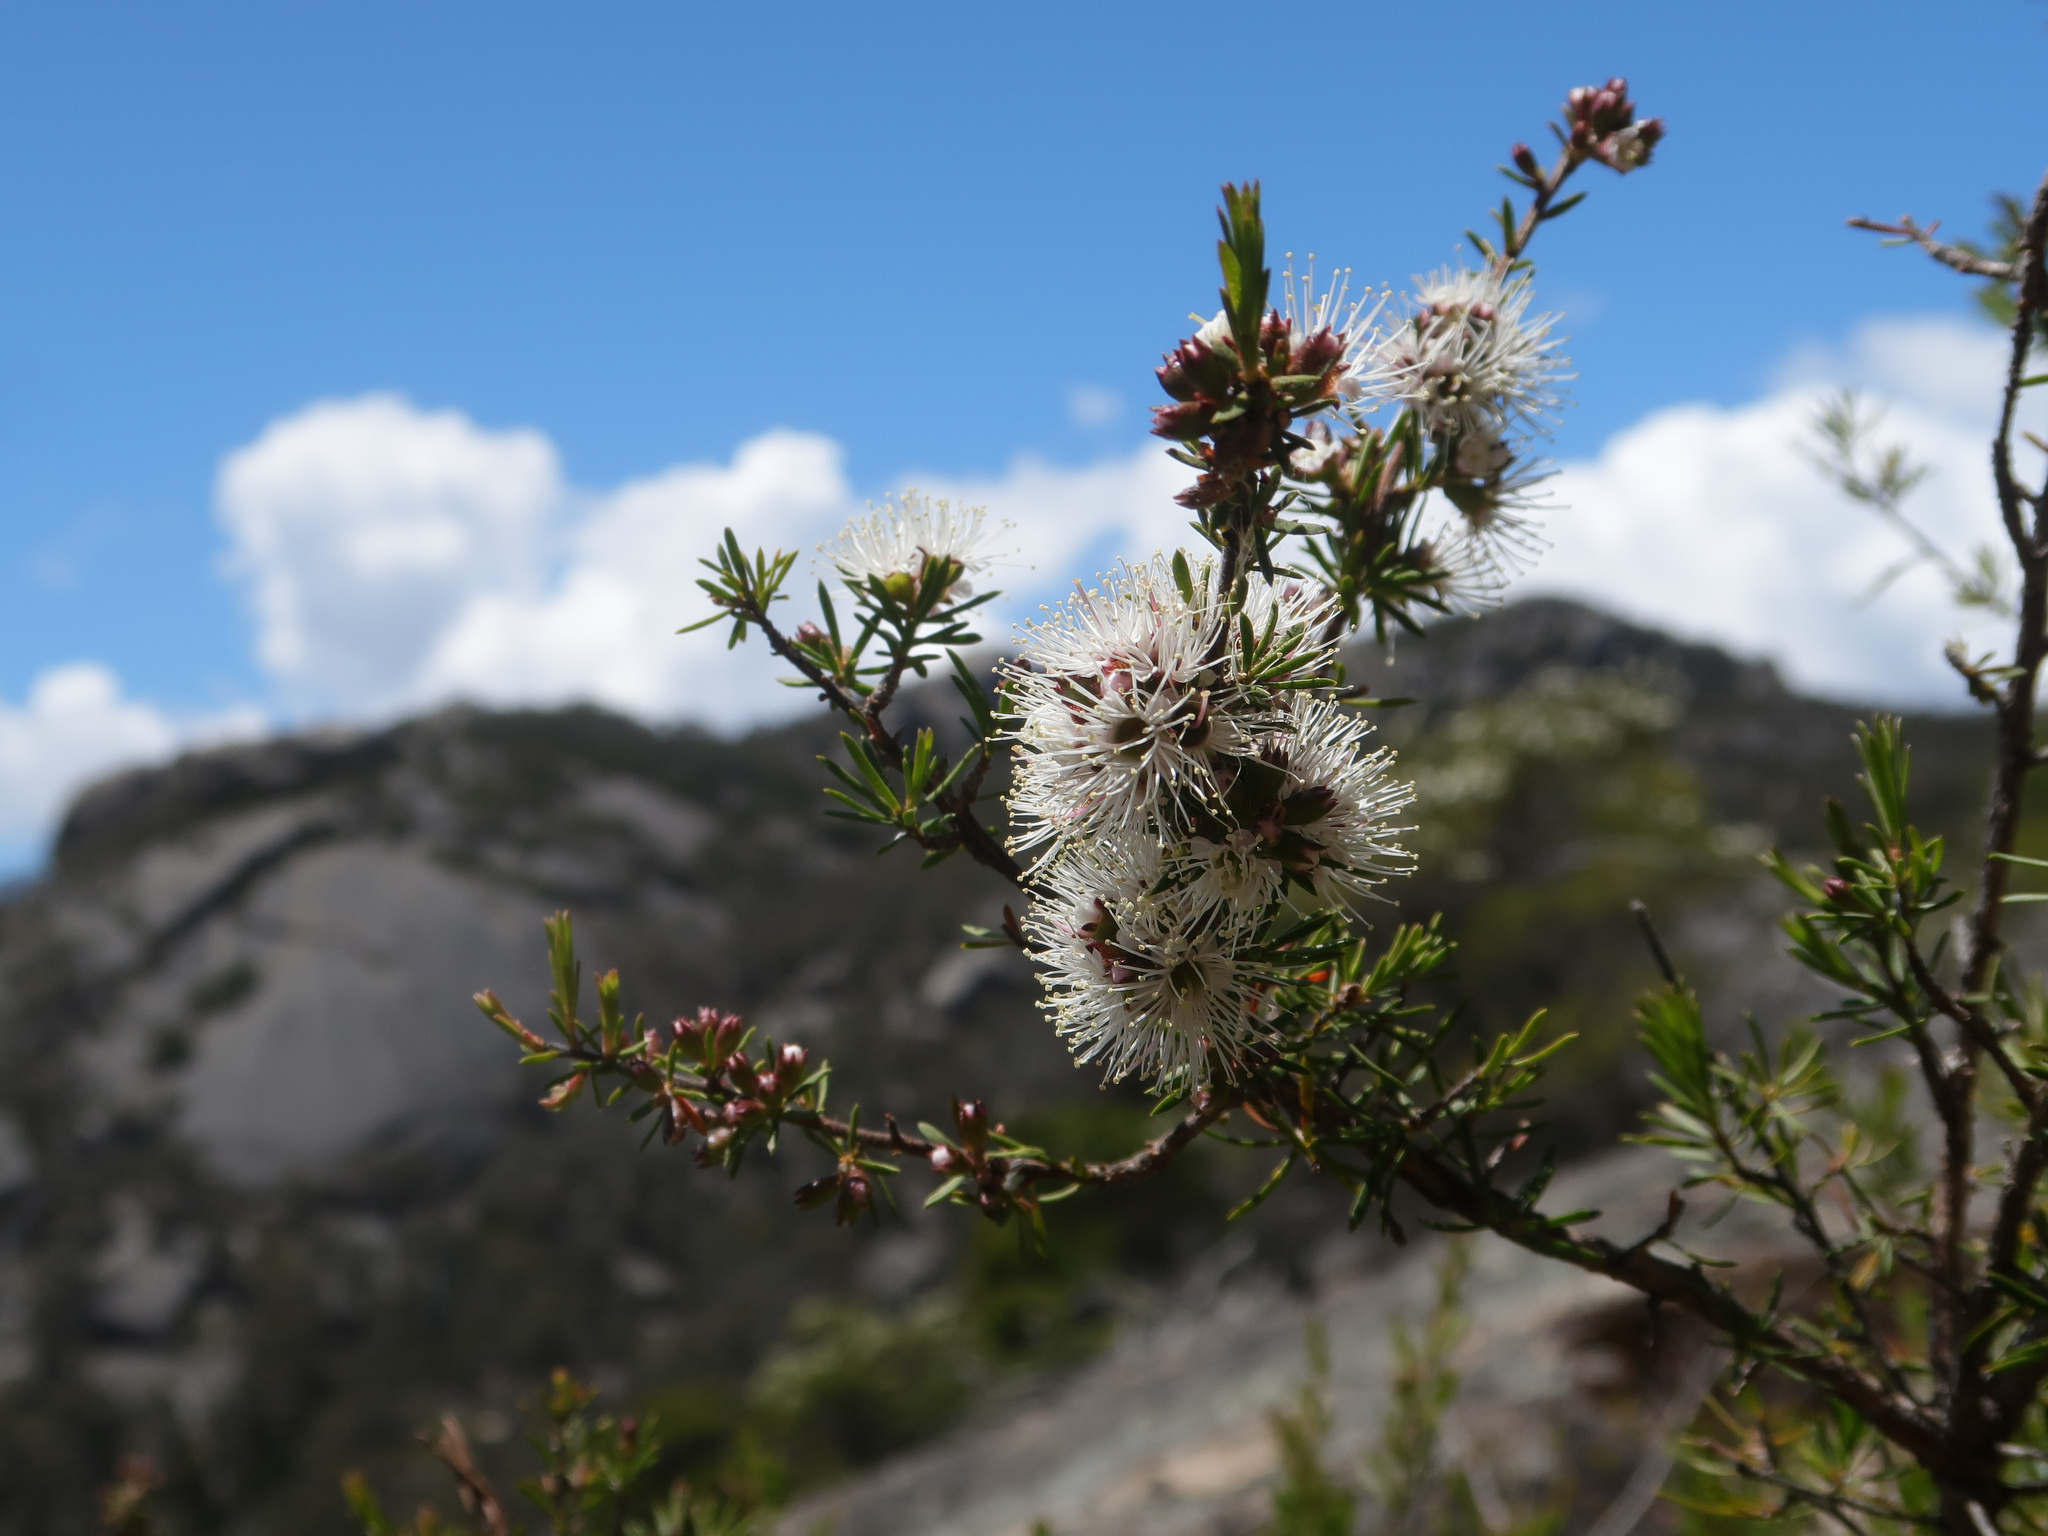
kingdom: Plantae
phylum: Tracheophyta
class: Magnoliopsida
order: Myrtales
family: Myrtaceae
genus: Kunzea
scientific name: Kunzea ambigua
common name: Tickbush
